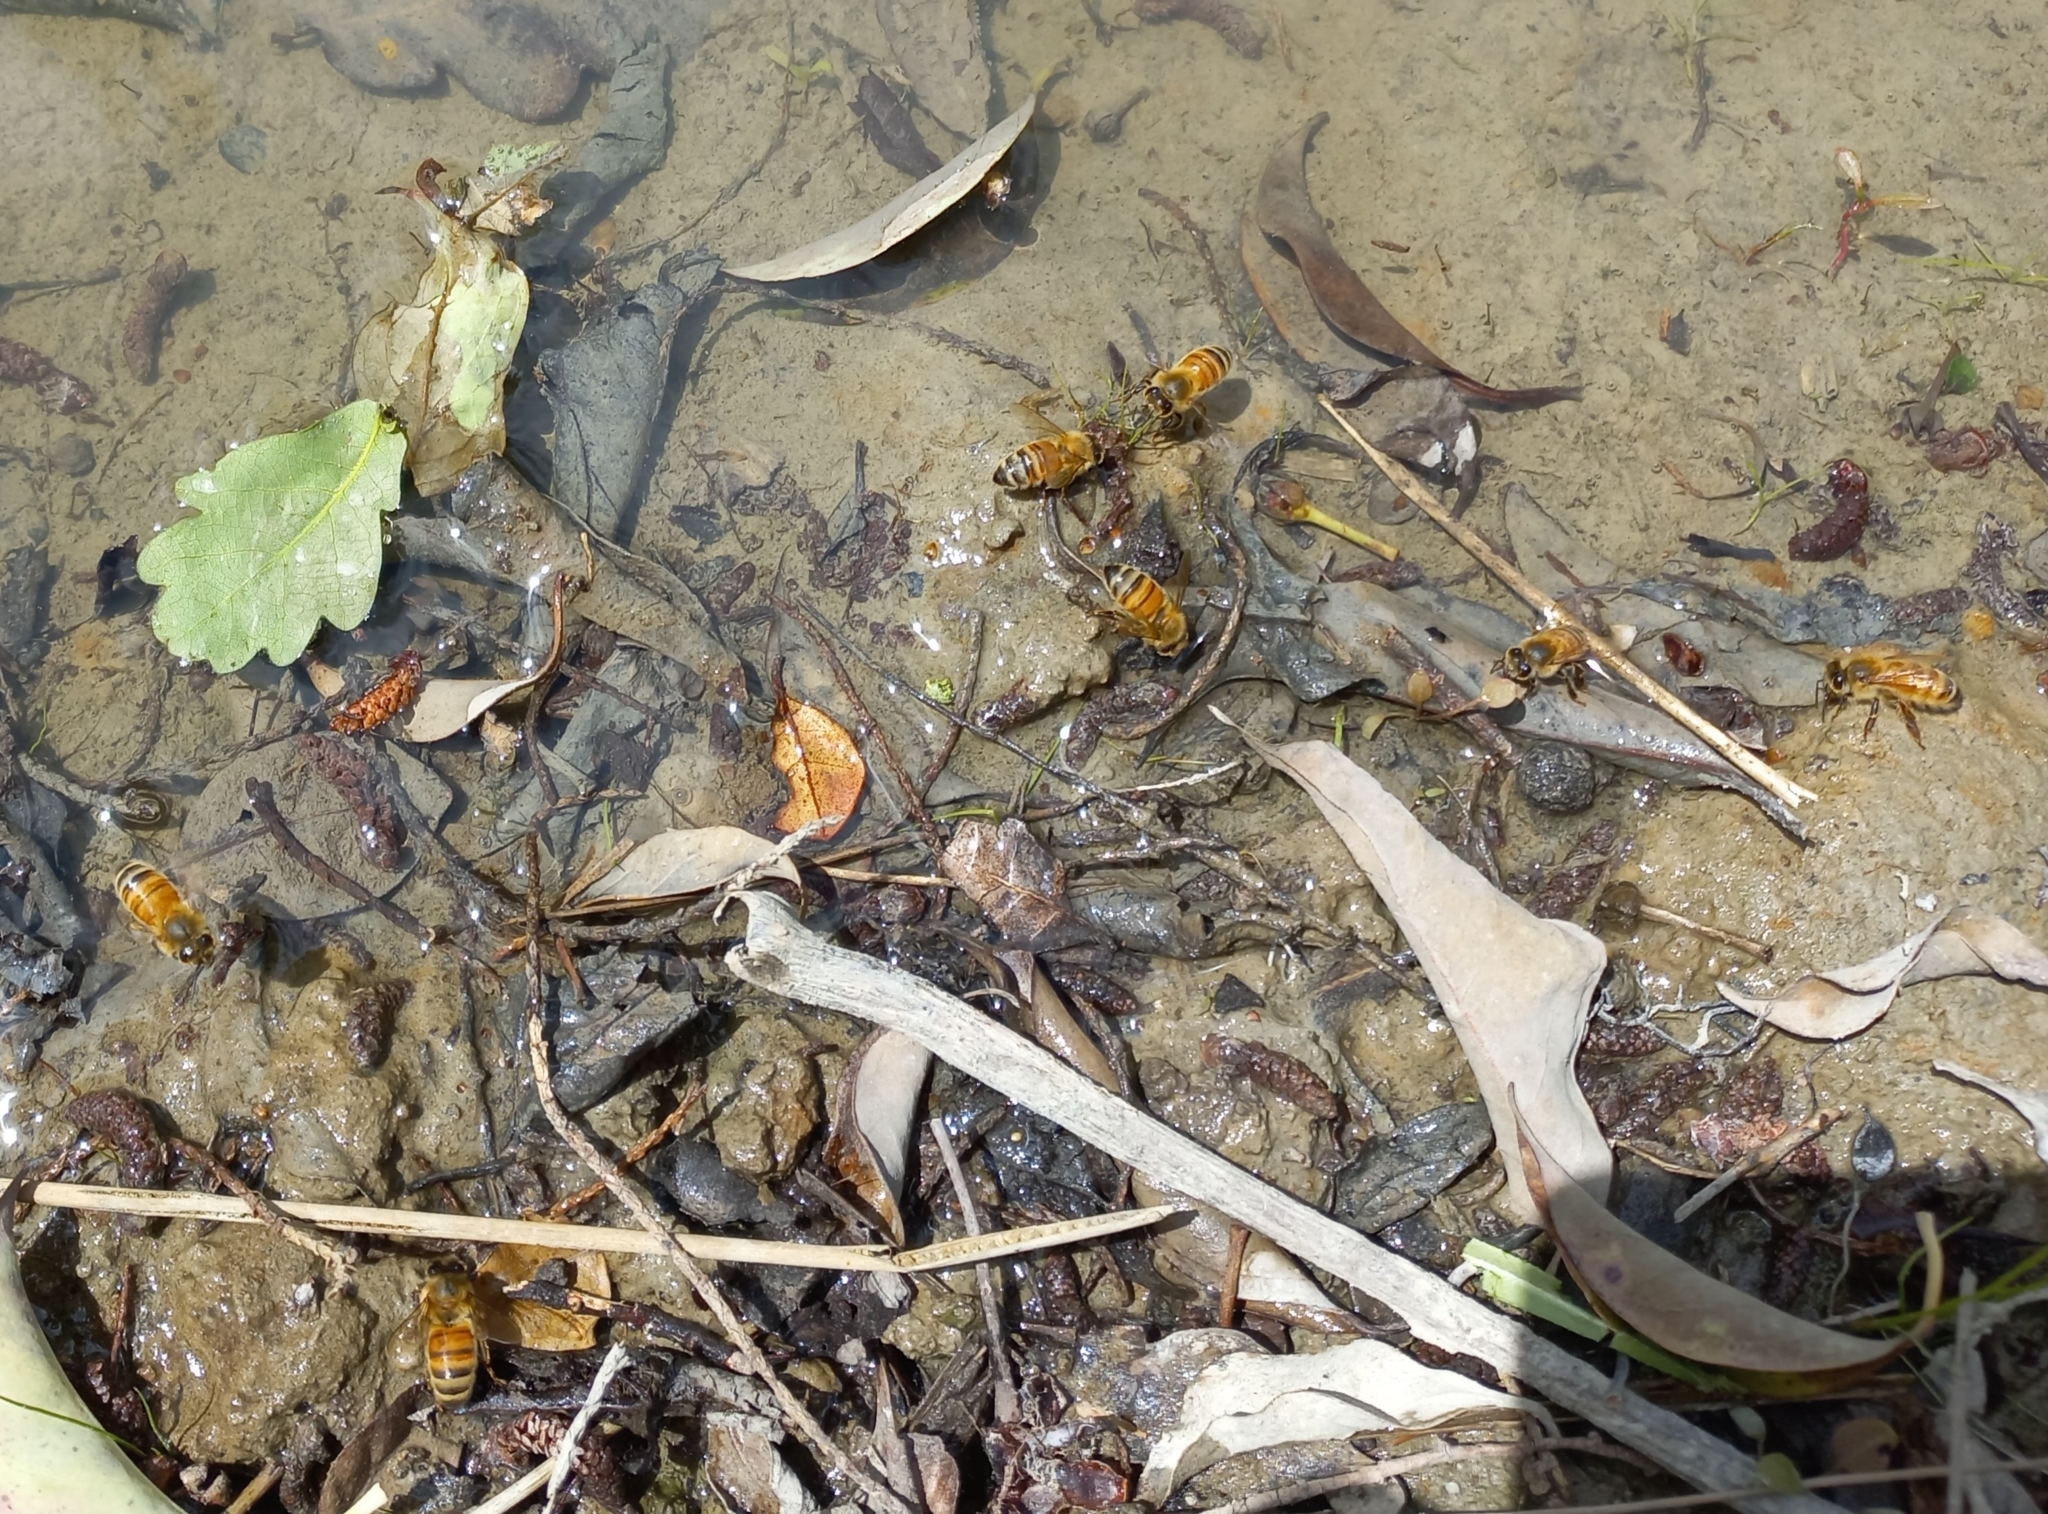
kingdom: Animalia
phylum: Arthropoda
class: Insecta
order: Hymenoptera
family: Apidae
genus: Apis
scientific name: Apis mellifera
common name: Honey bee
